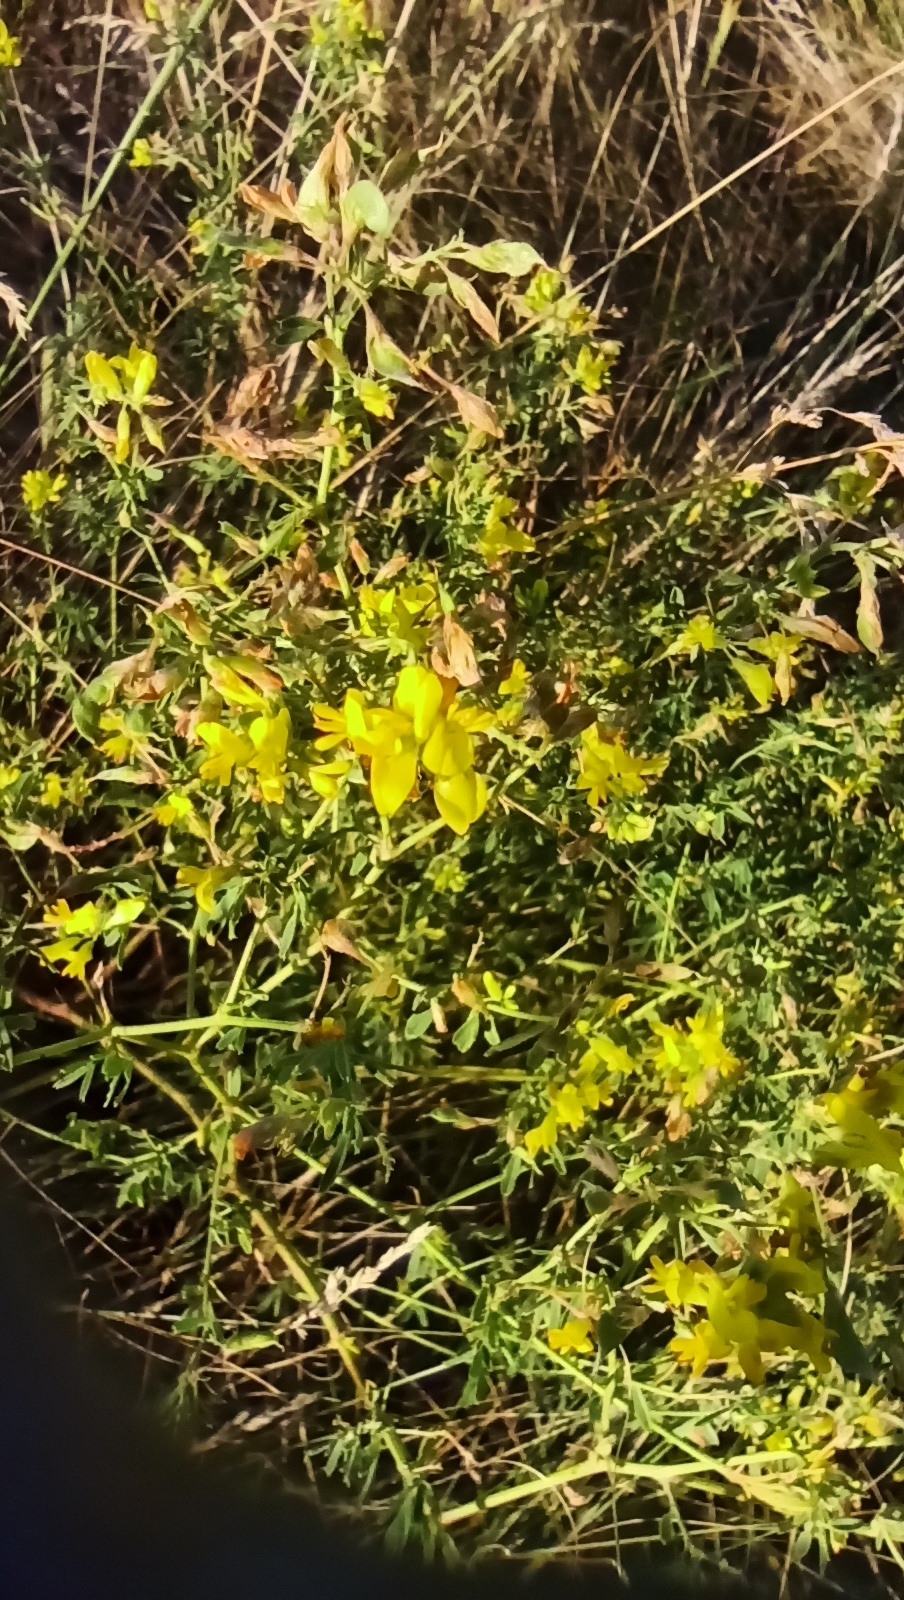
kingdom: Plantae
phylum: Tracheophyta
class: Magnoliopsida
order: Fabales
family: Fabaceae
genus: Medicago
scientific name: Medicago falcata
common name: Sickle medick
